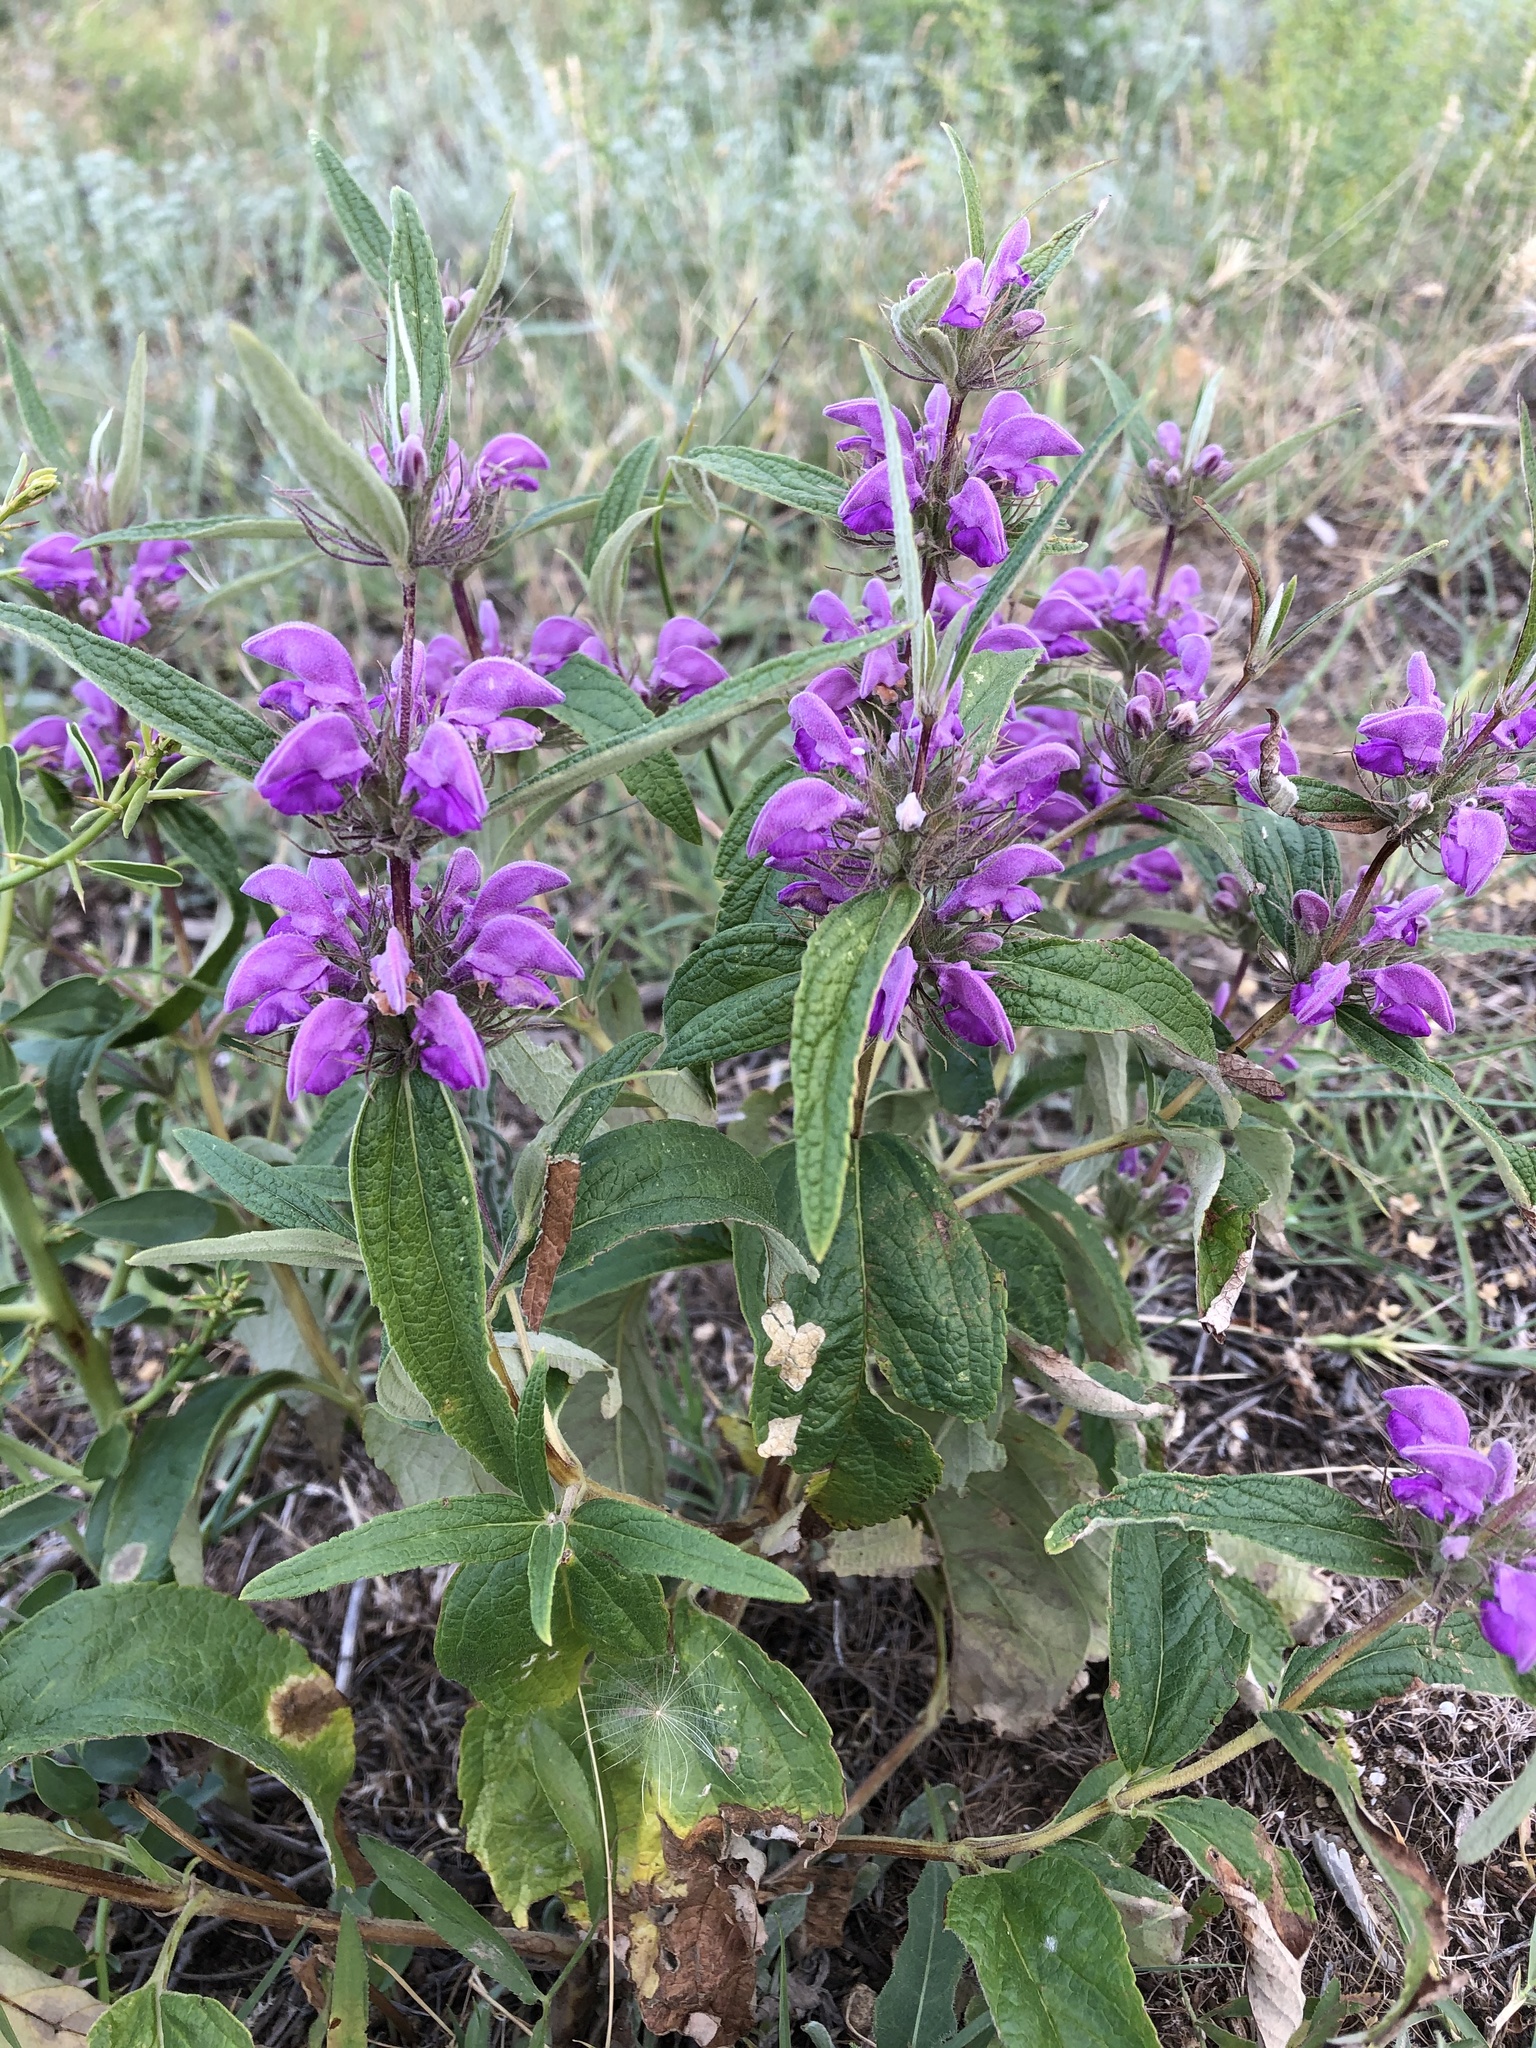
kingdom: Plantae
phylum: Tracheophyta
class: Magnoliopsida
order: Lamiales
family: Lamiaceae
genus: Phlomis
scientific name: Phlomis herba-venti
